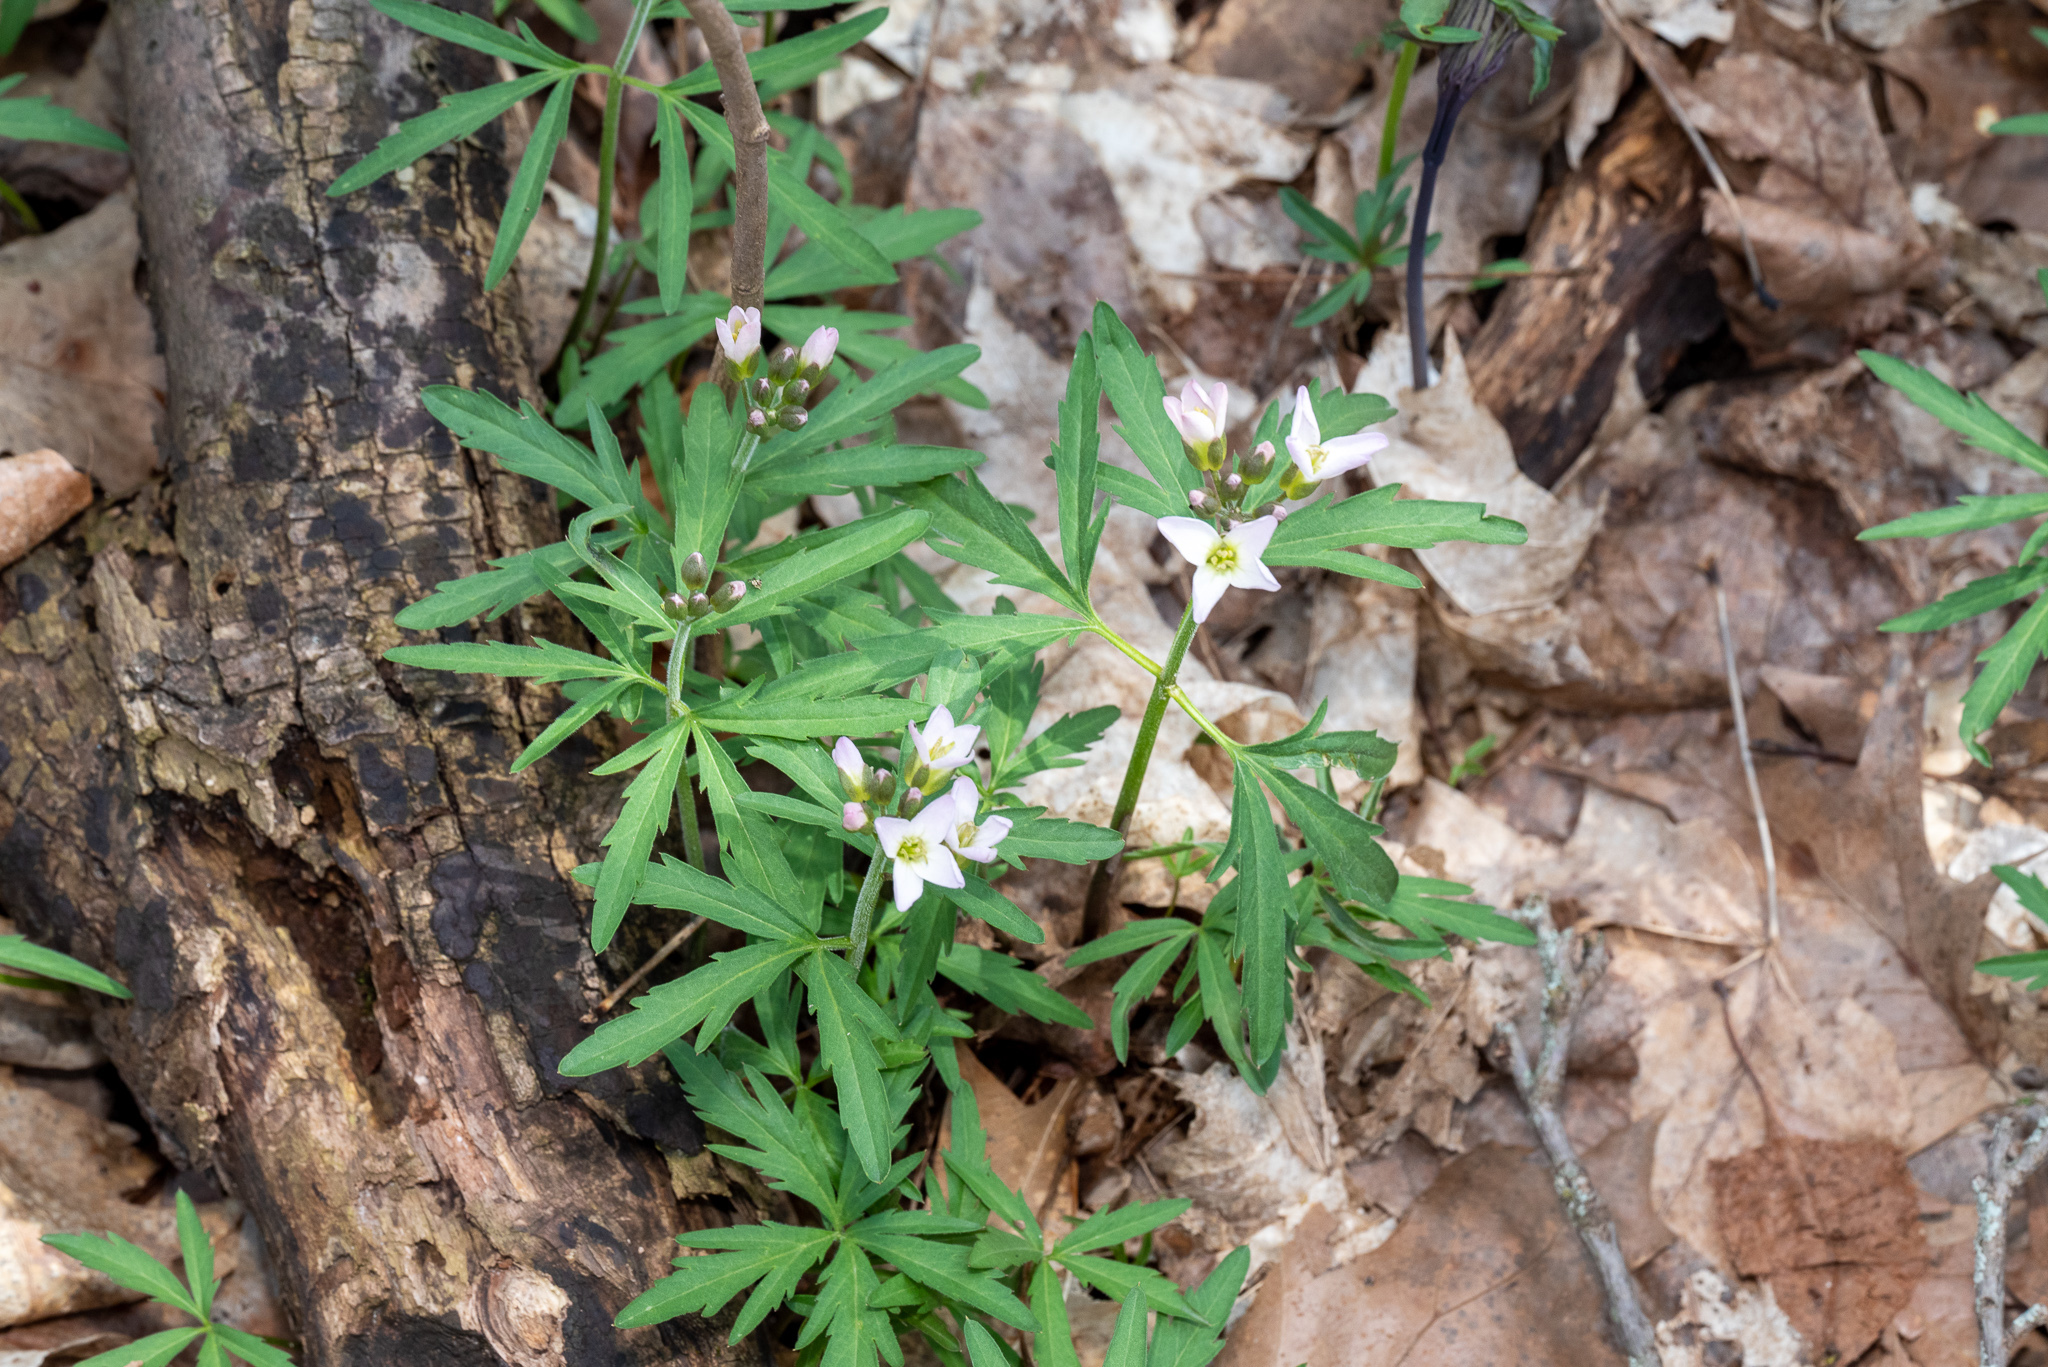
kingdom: Plantae
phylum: Tracheophyta
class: Magnoliopsida
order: Brassicales
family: Brassicaceae
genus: Cardamine
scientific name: Cardamine concatenata
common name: Cut-leaf toothcup
